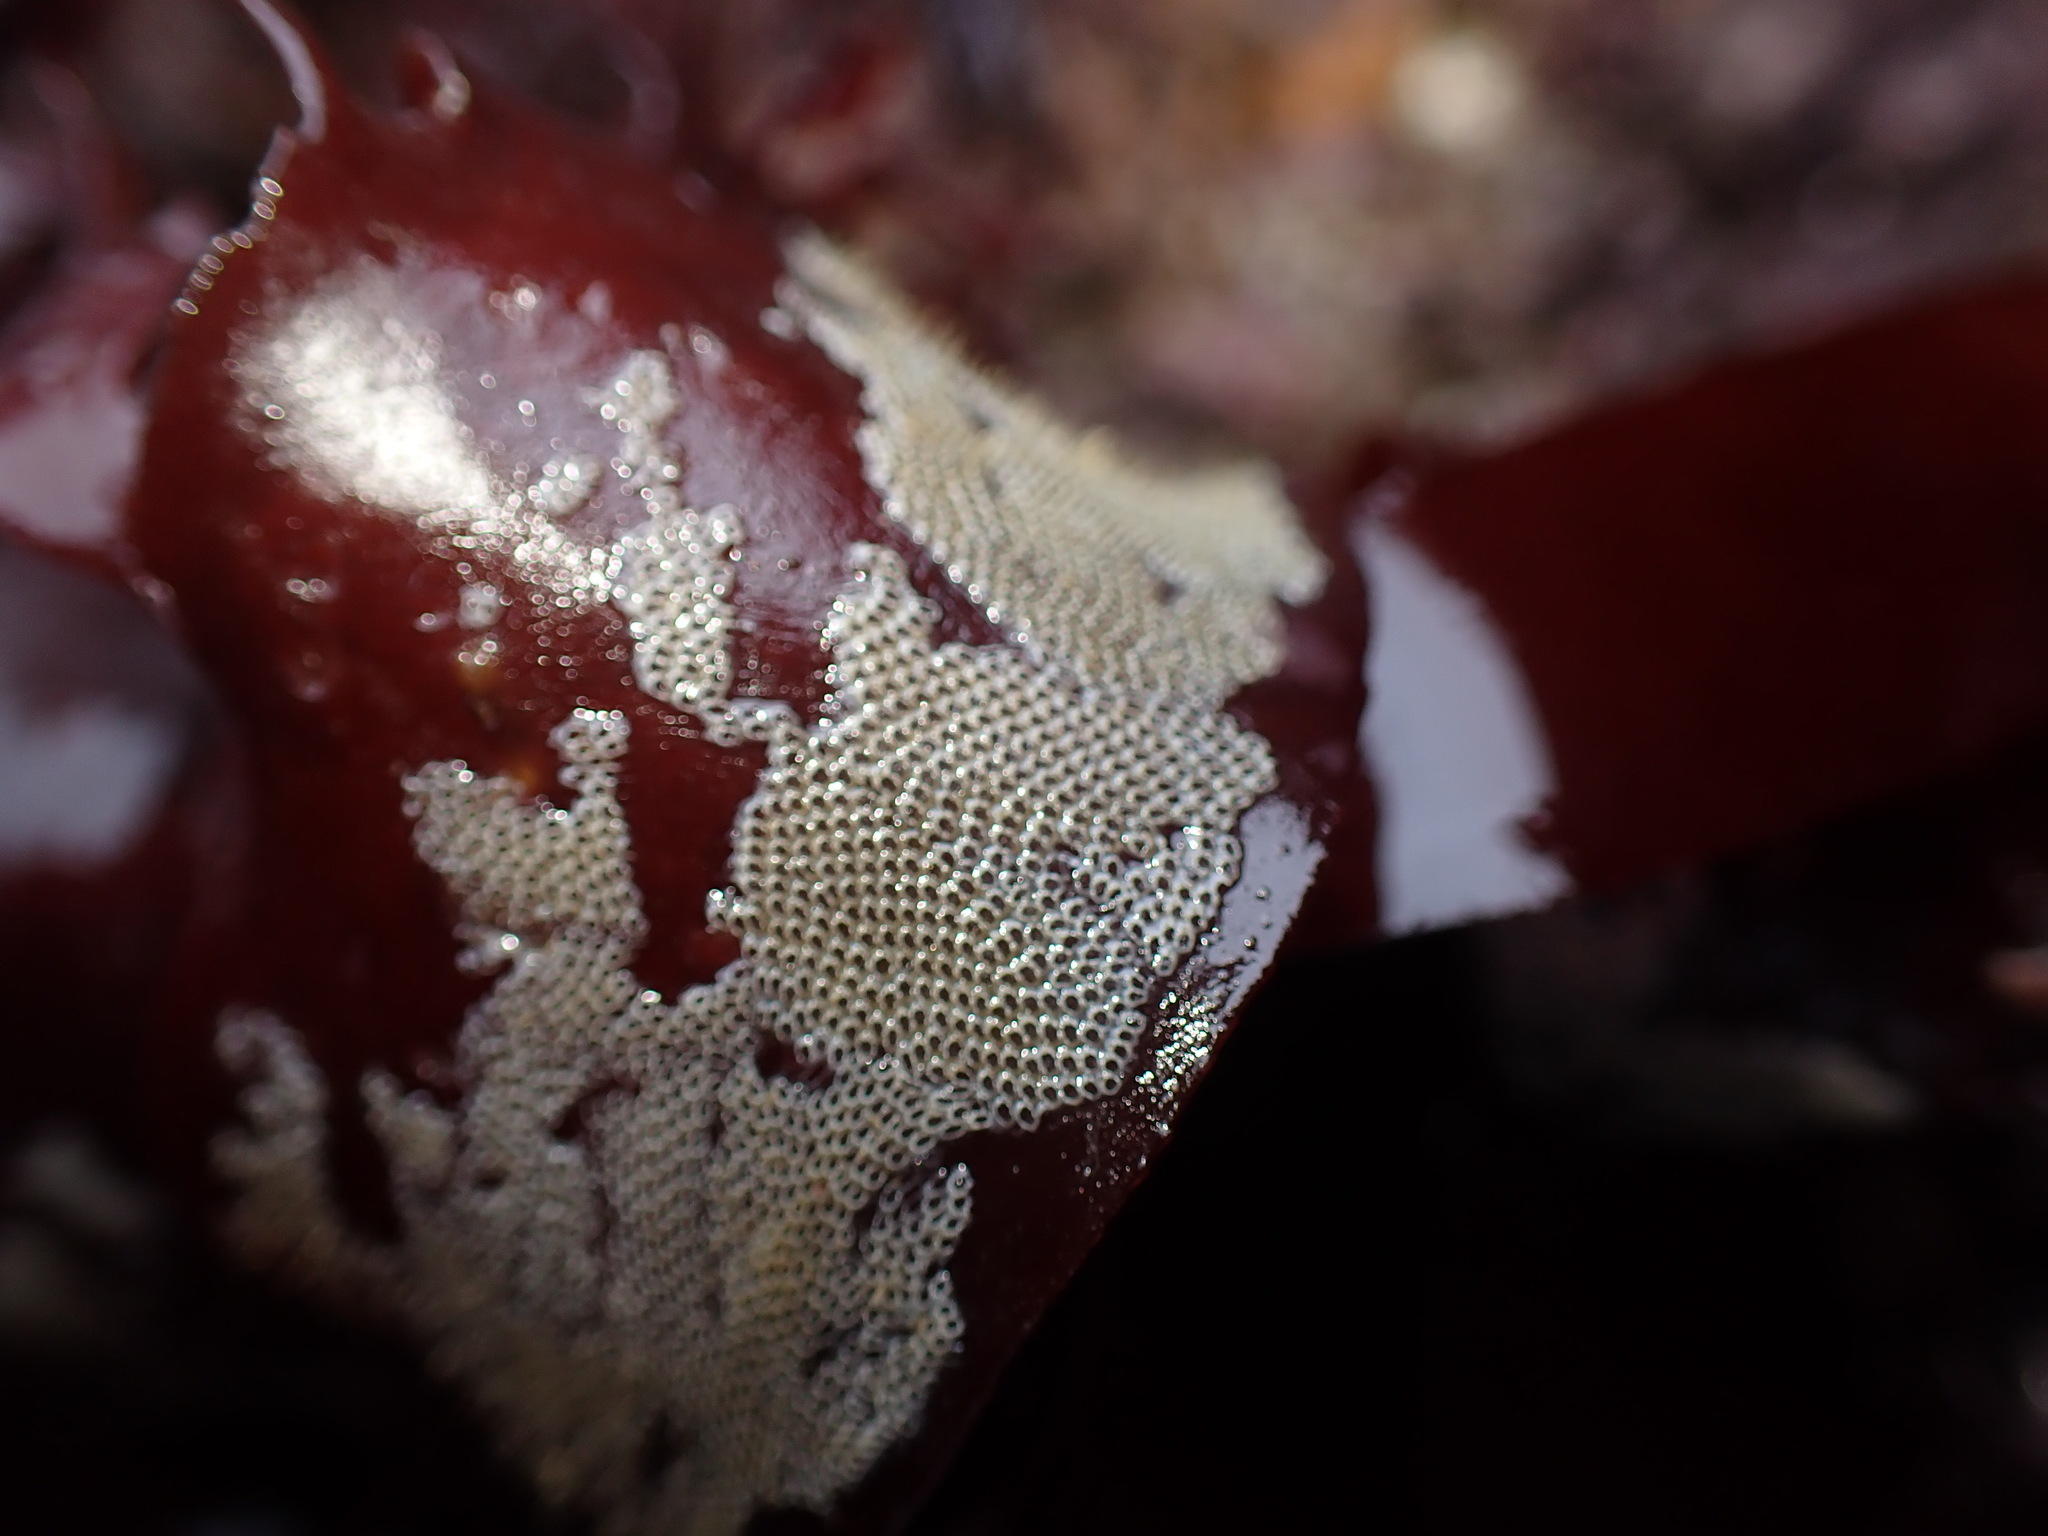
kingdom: Animalia
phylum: Bryozoa
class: Gymnolaemata
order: Cheilostomatida
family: Electridae
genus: Electra
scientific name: Electra pilosa
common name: Hairy sea-mat
